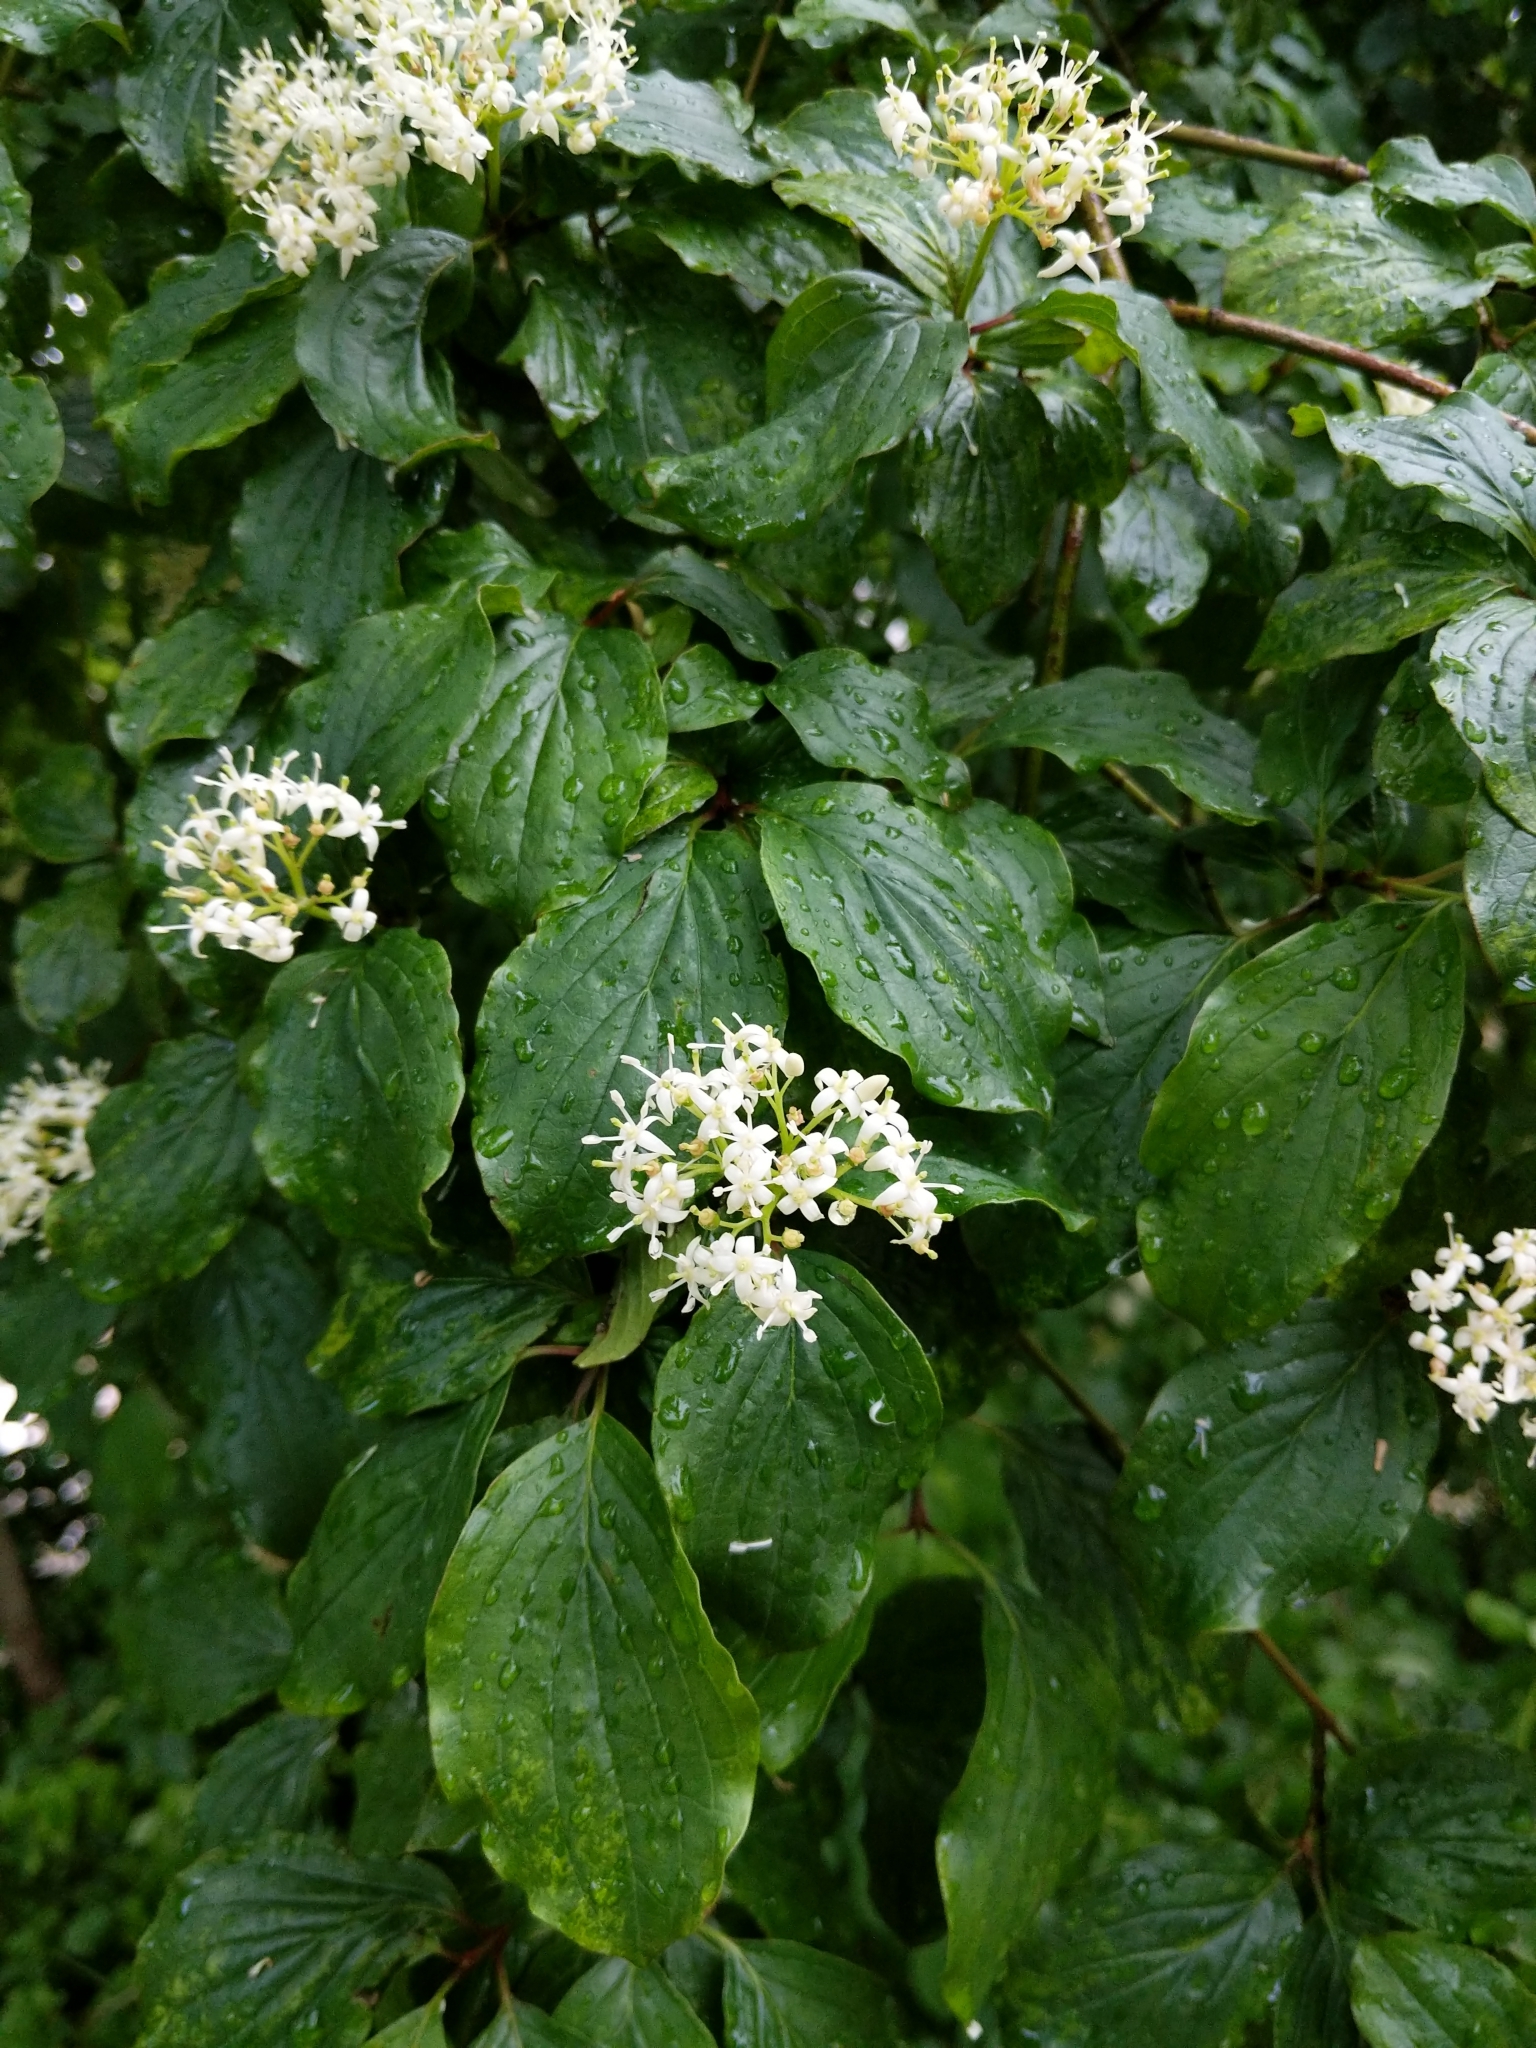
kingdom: Plantae
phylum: Tracheophyta
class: Magnoliopsida
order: Cornales
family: Cornaceae
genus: Cornus
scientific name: Cornus sanguinea
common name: Dogwood
